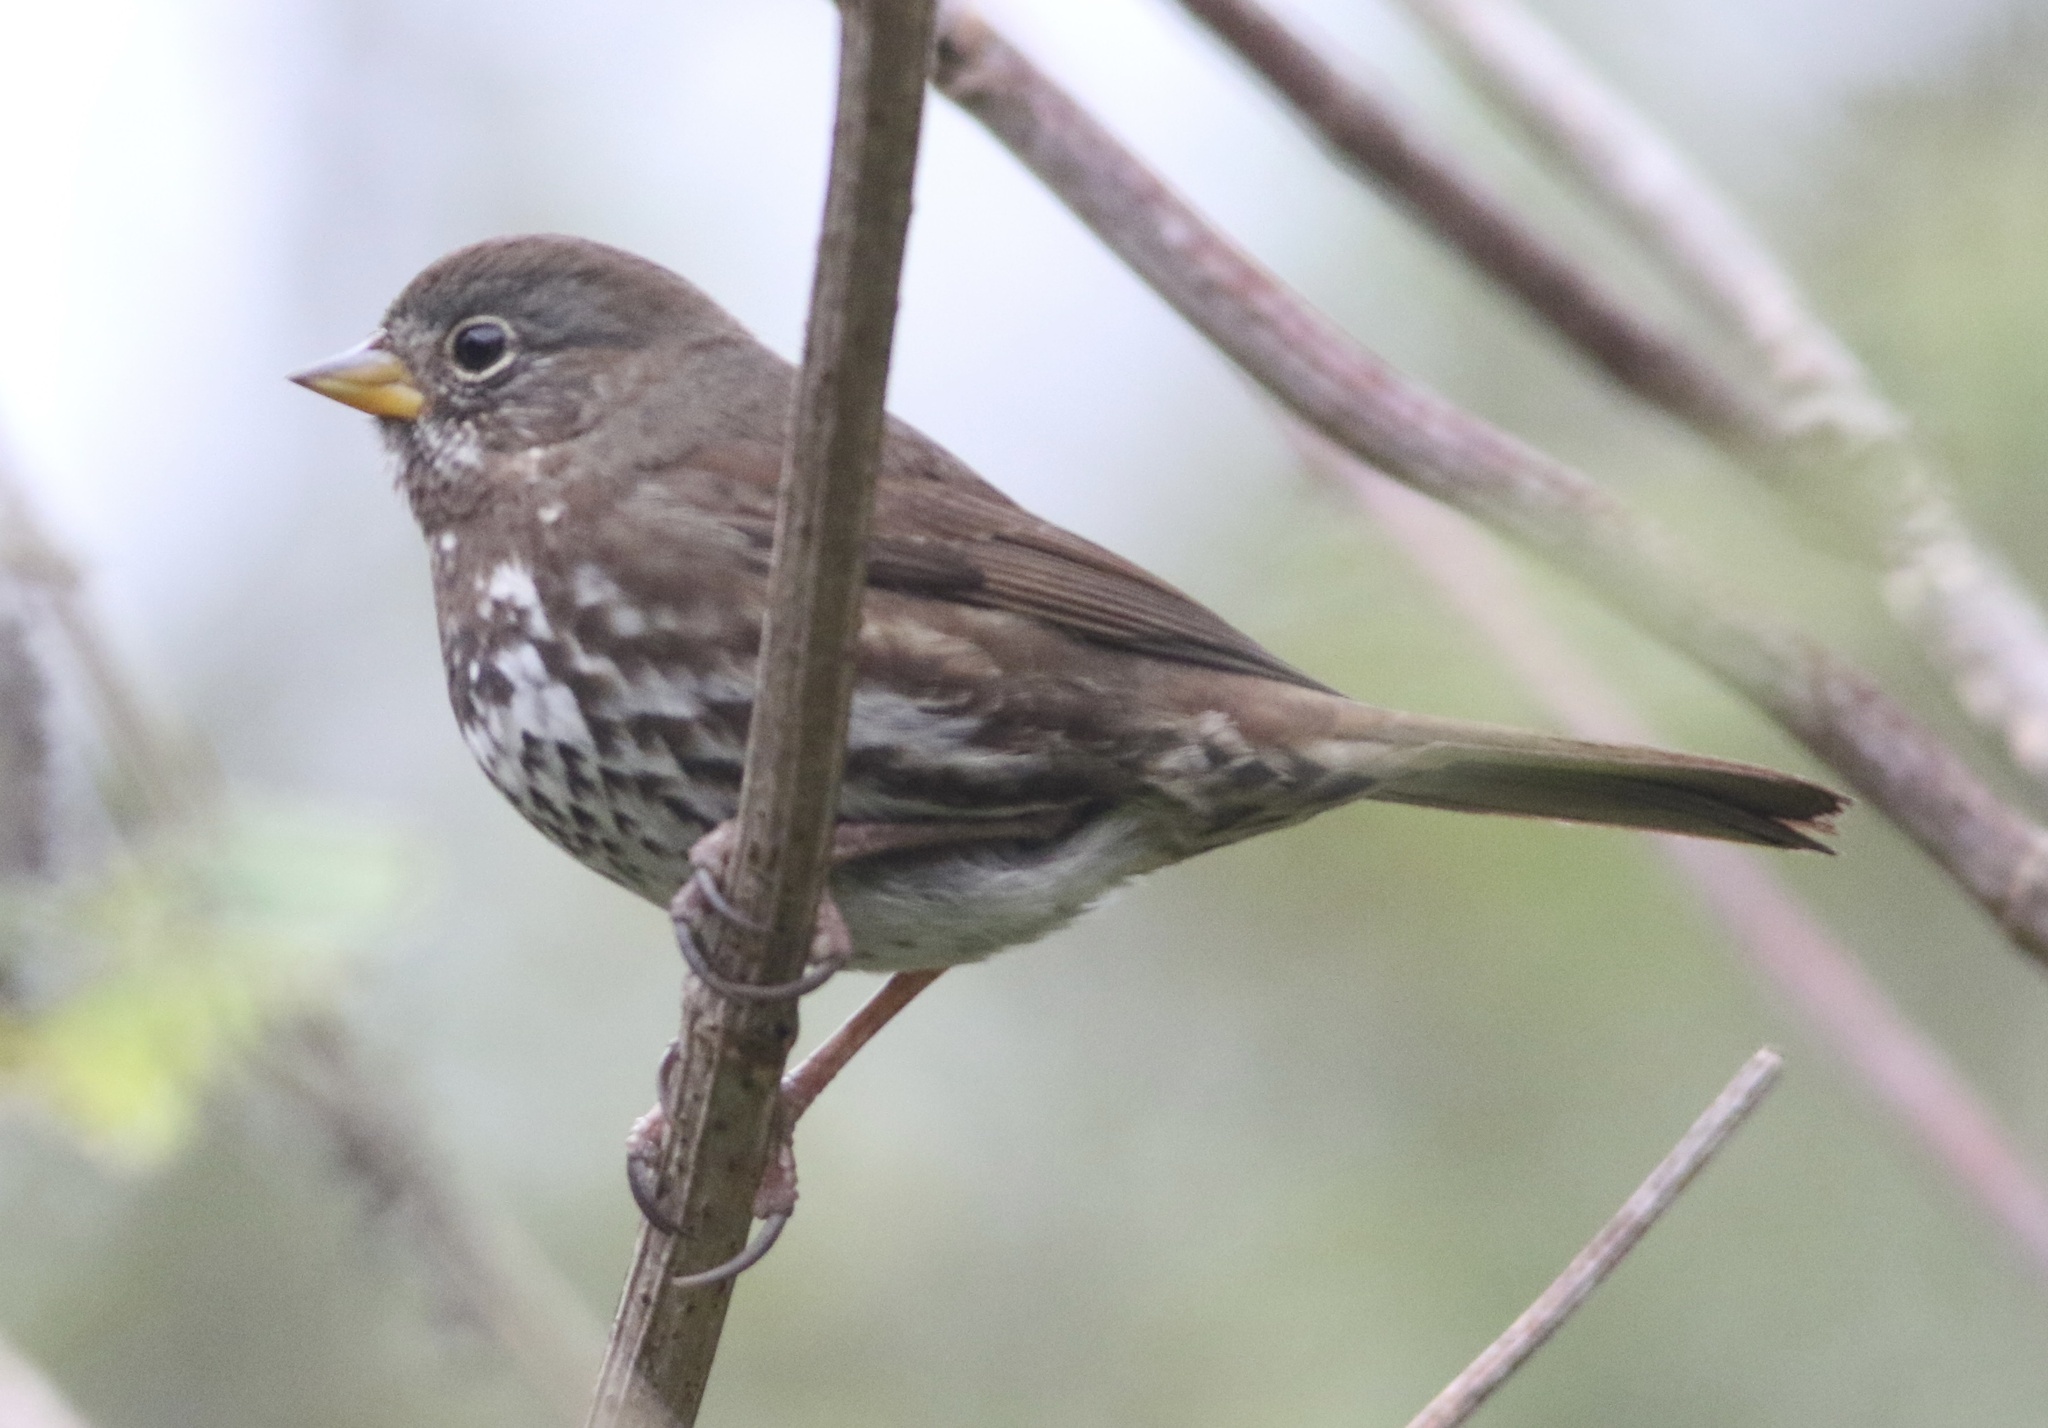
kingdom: Animalia
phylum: Chordata
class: Aves
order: Passeriformes
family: Passerellidae
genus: Passerella
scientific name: Passerella iliaca
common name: Fox sparrow
